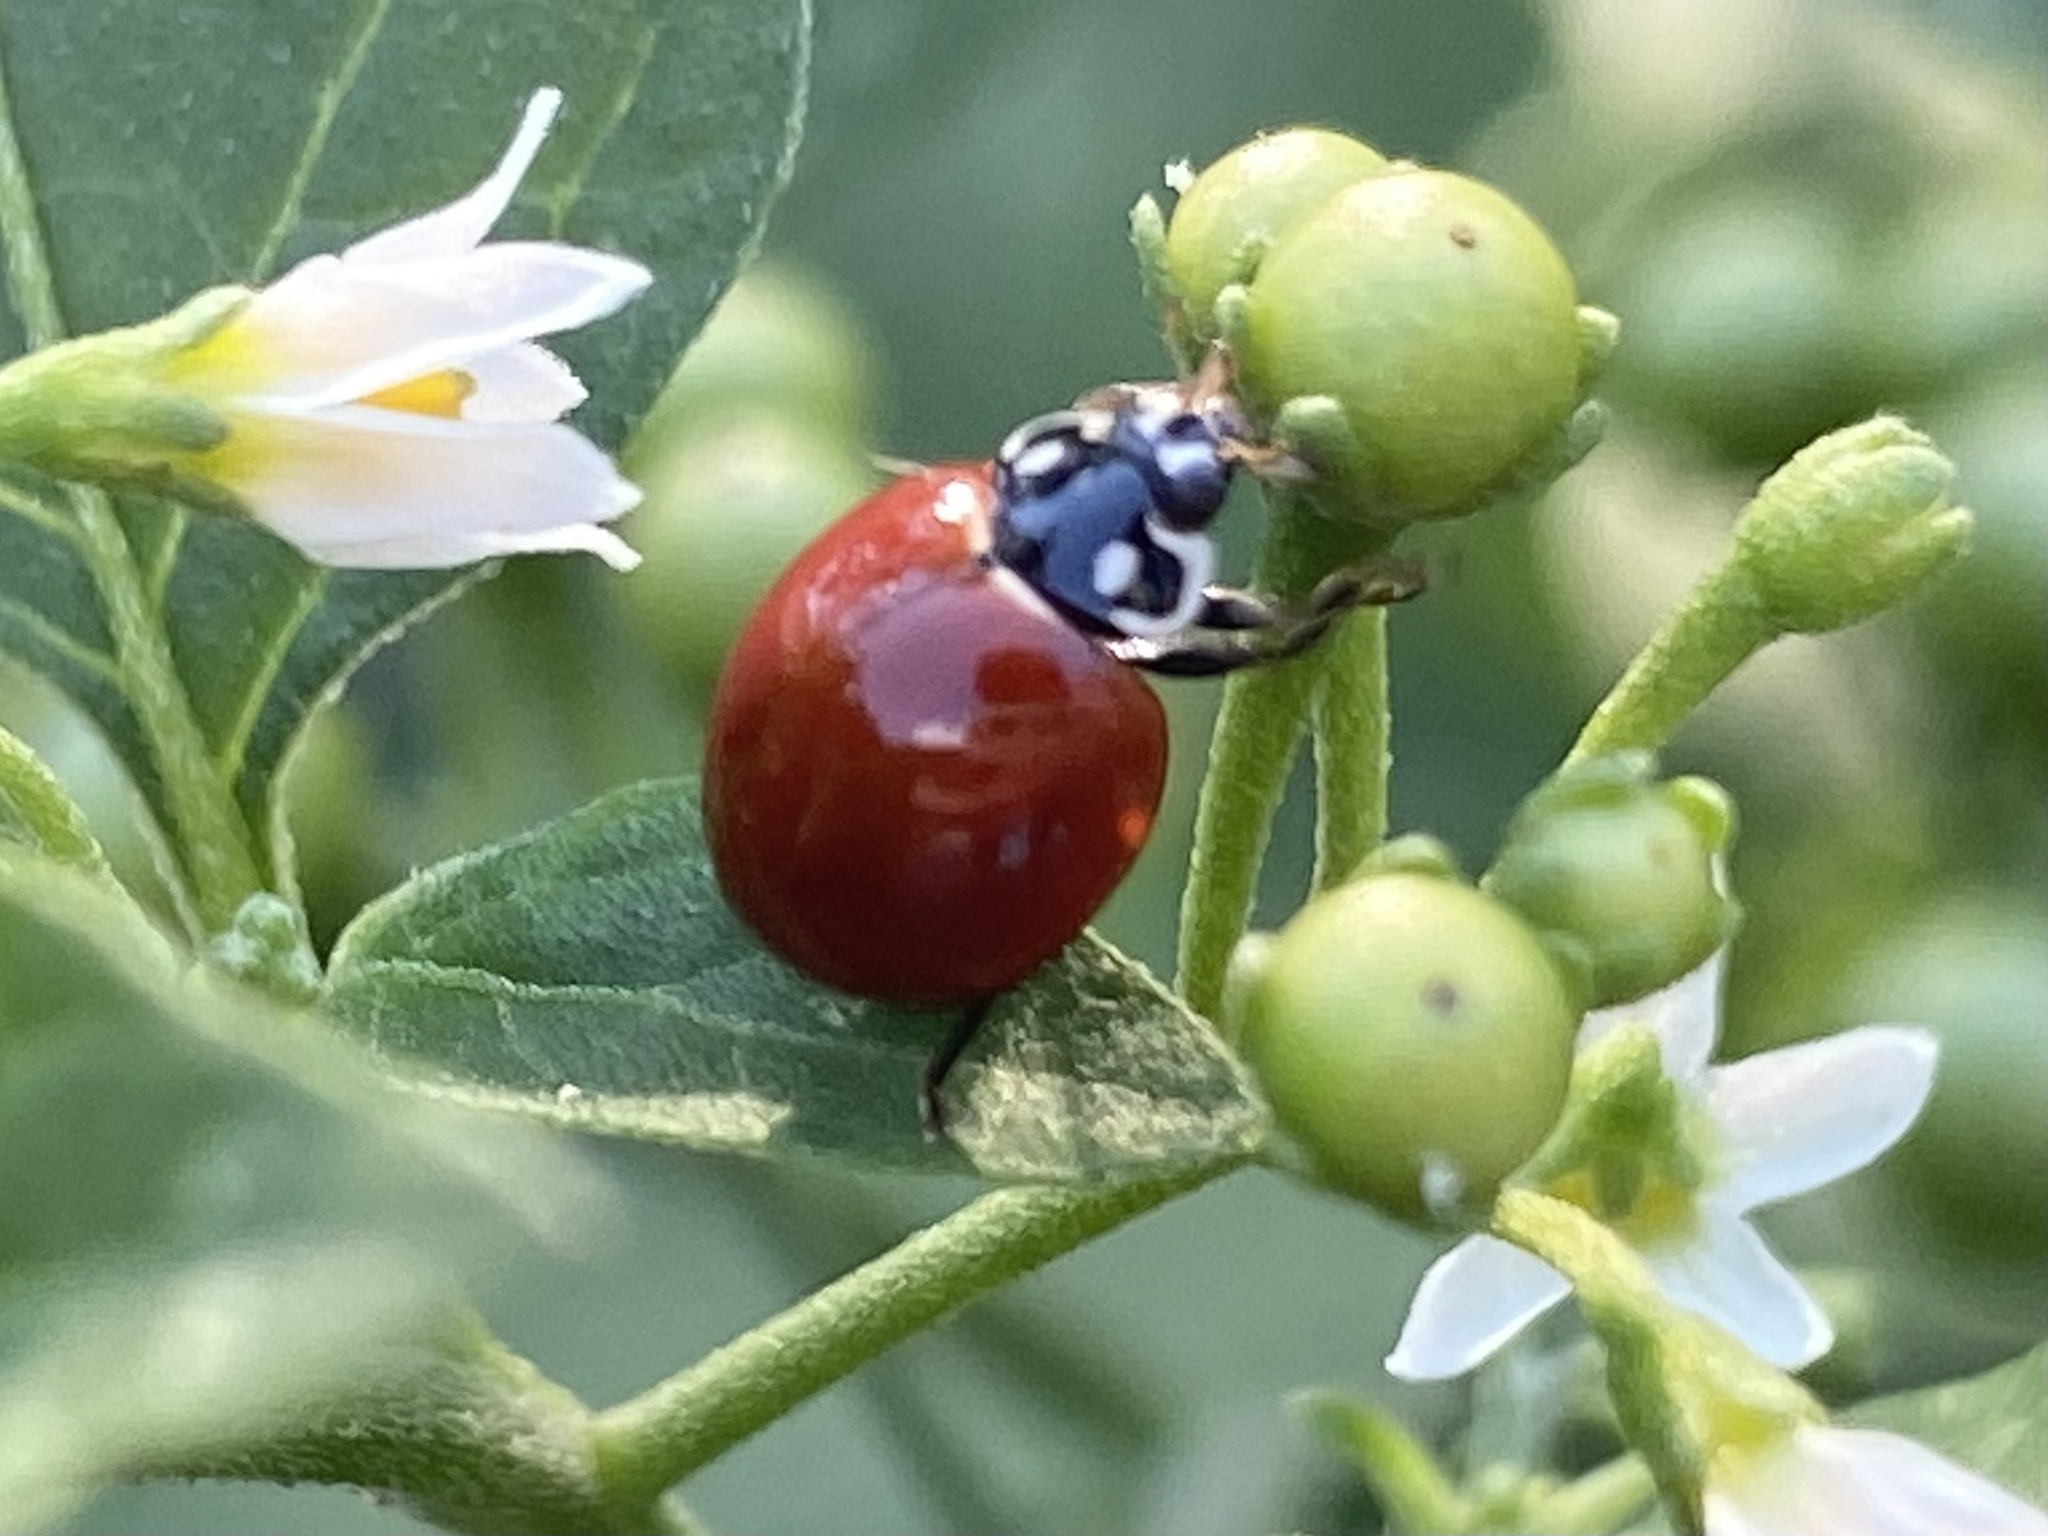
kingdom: Animalia
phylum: Arthropoda
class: Insecta
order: Coleoptera
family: Coccinellidae
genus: Cycloneda
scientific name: Cycloneda sanguinea
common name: Ladybird beetle
